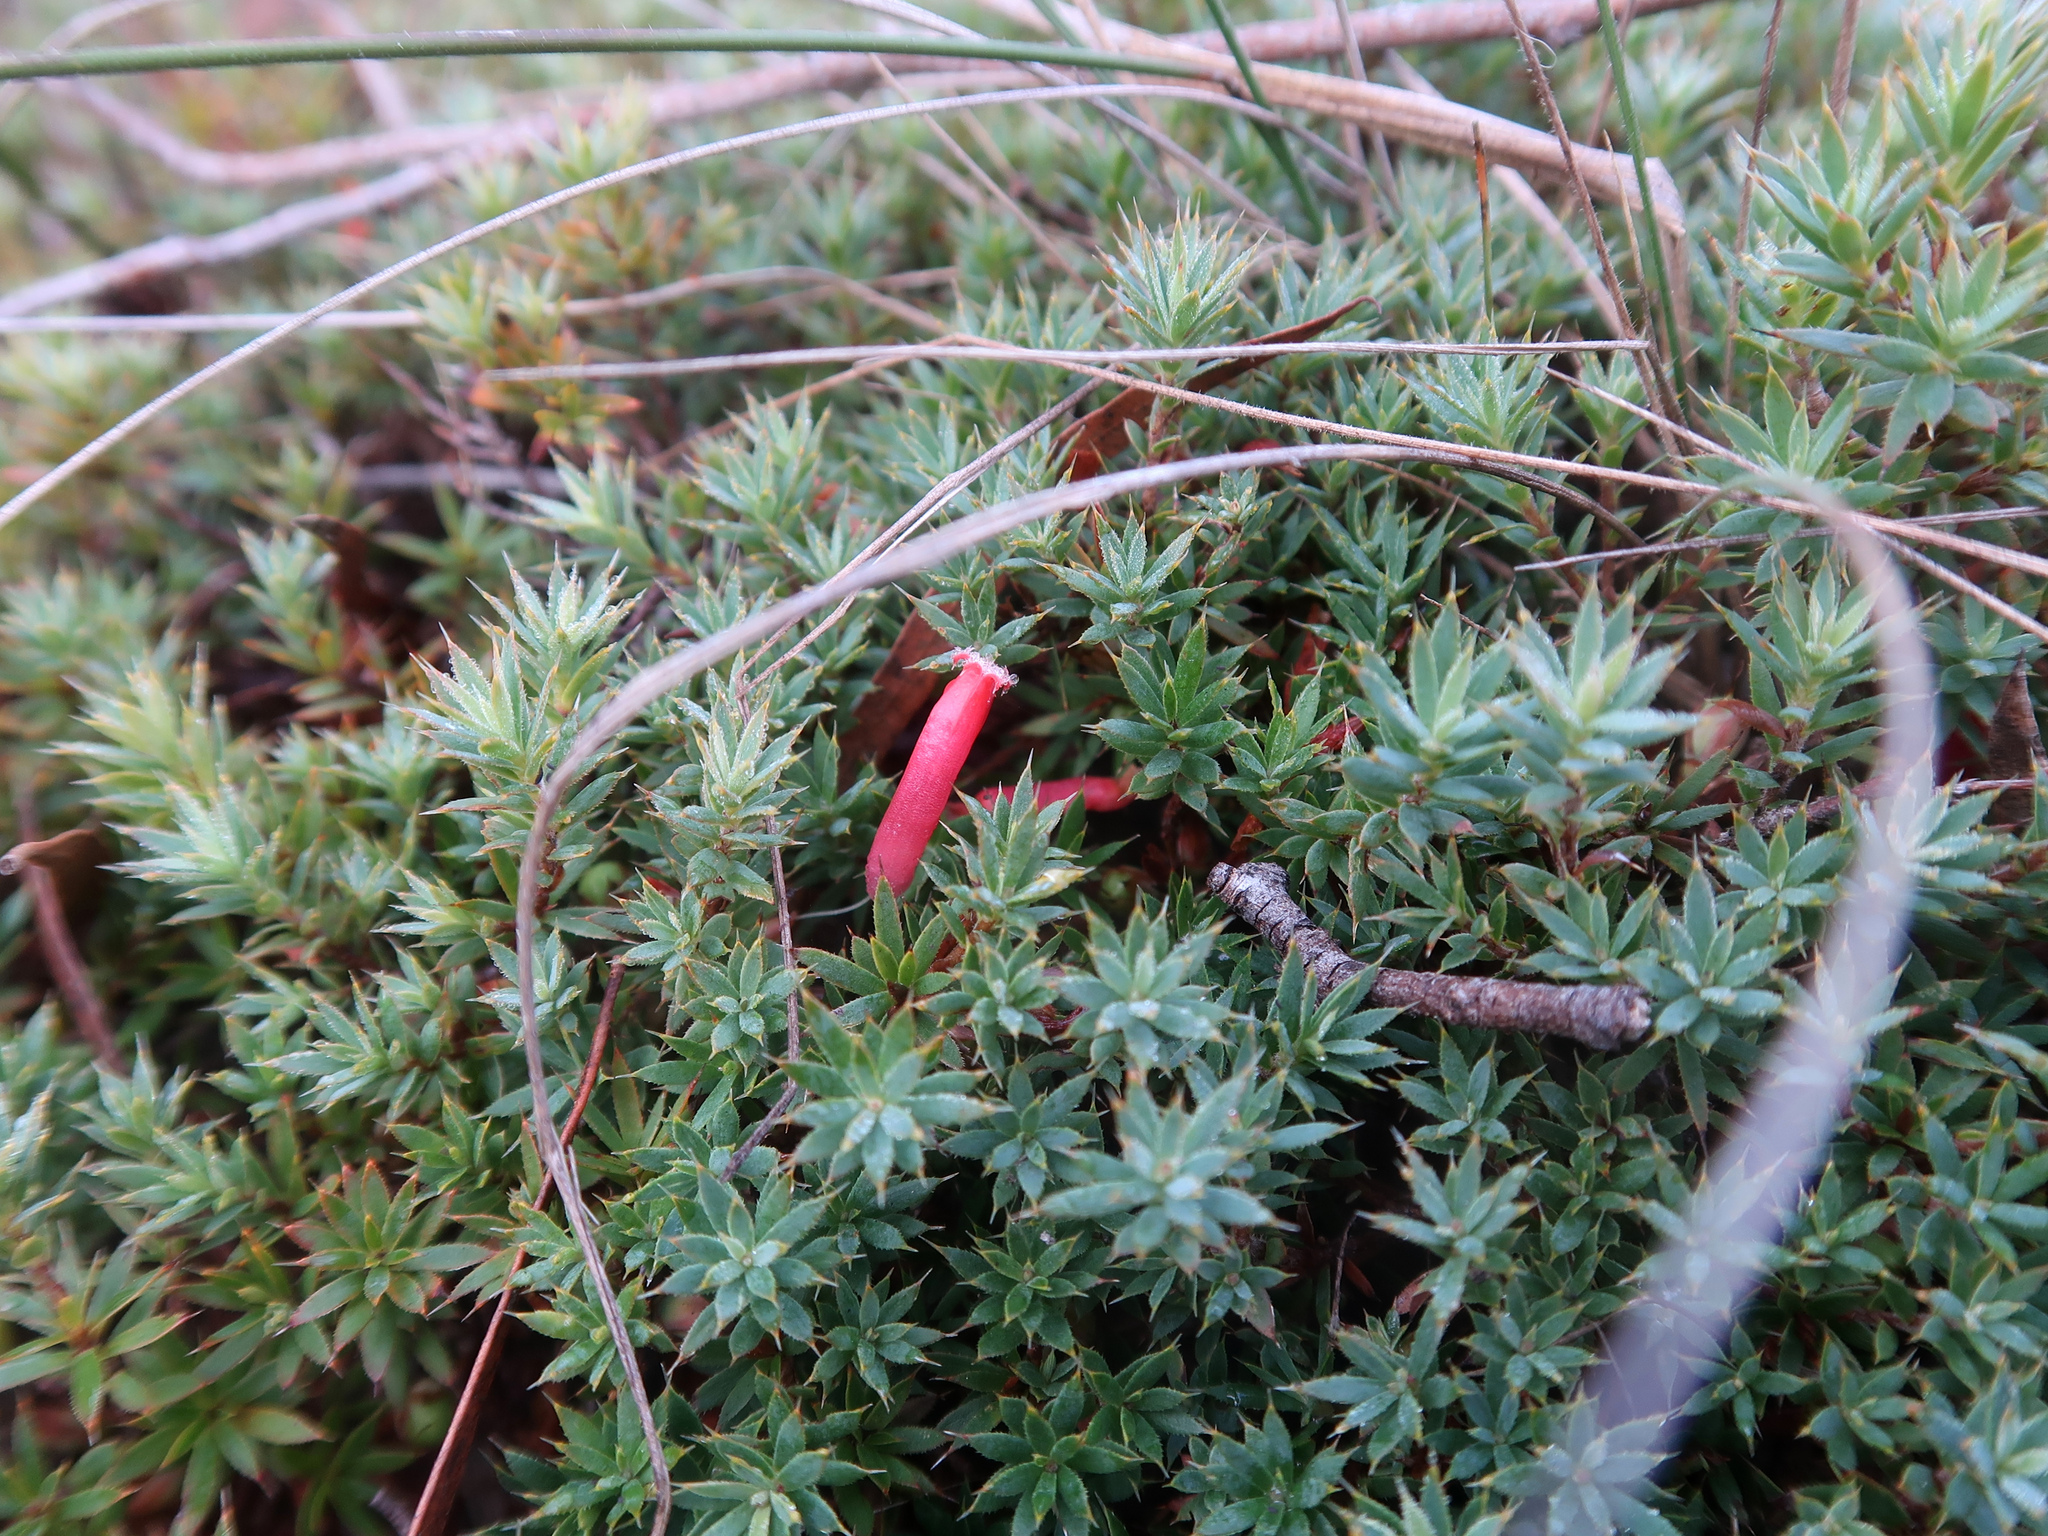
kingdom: Plantae
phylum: Tracheophyta
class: Magnoliopsida
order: Ericales
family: Ericaceae
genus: Styphelia
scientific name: Styphelia humifusa
